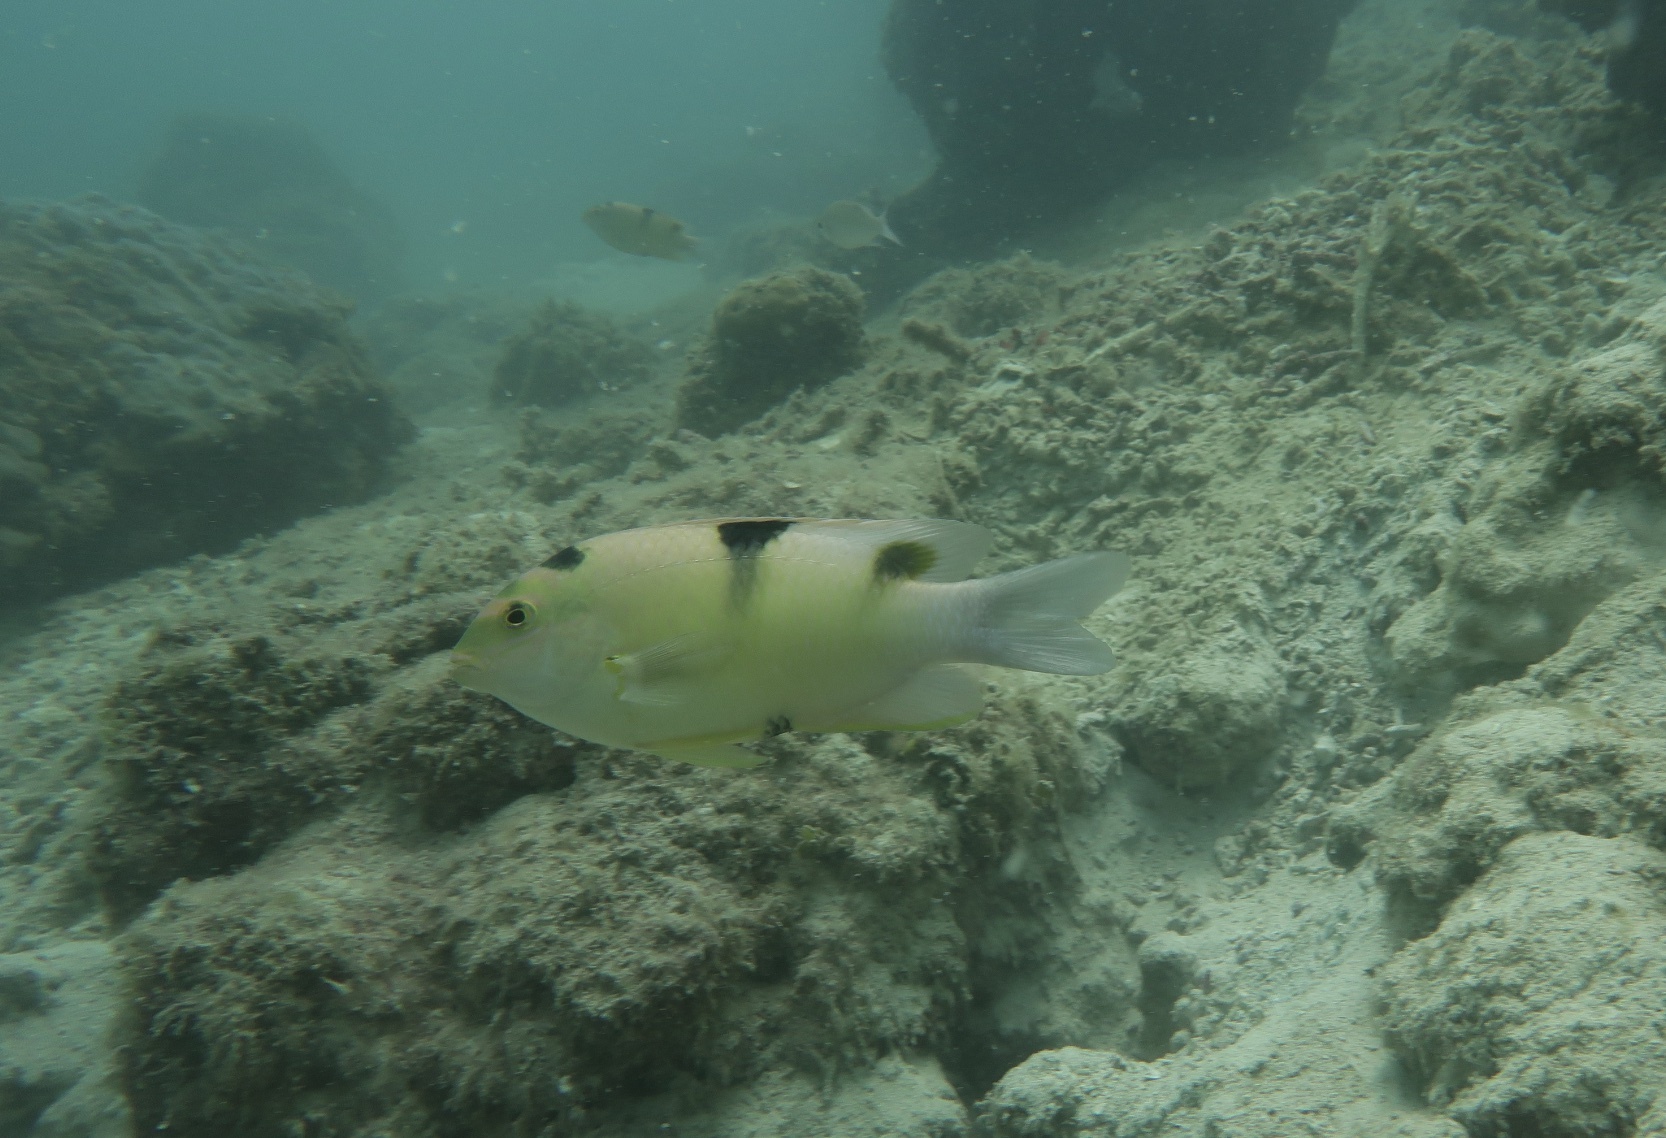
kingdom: Animalia
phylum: Chordata
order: Perciformes
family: Pomacentridae
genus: Dischistodus
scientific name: Dischistodus perspicillatus
